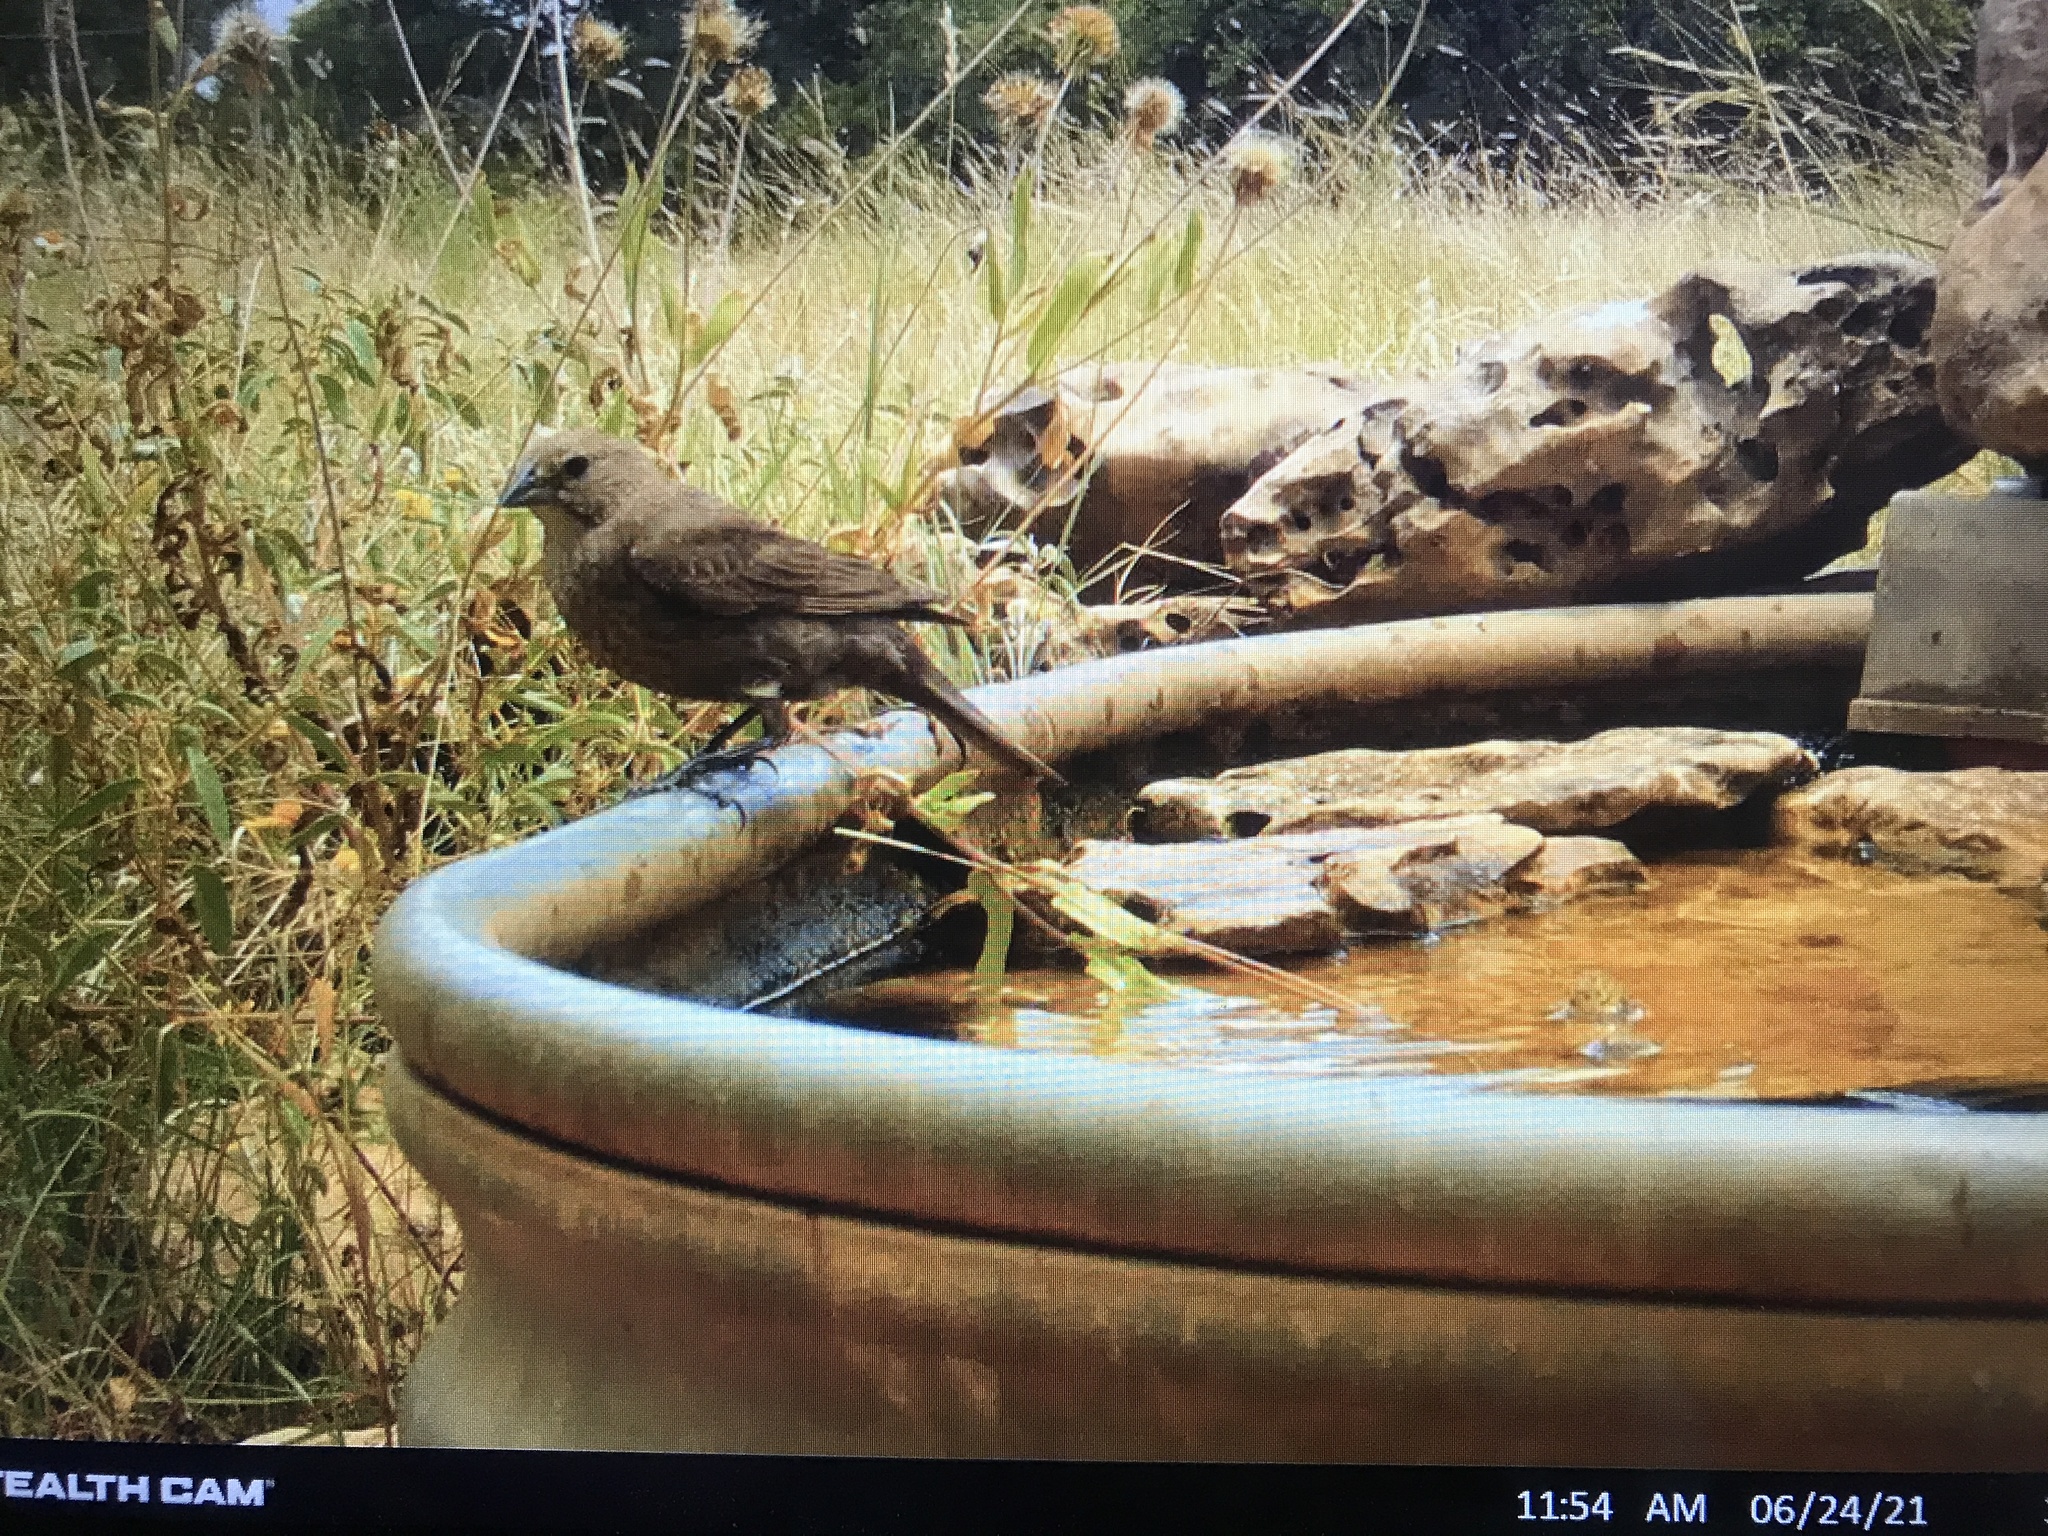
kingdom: Animalia
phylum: Chordata
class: Aves
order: Passeriformes
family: Icteridae
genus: Molothrus
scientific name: Molothrus ater
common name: Brown-headed cowbird
